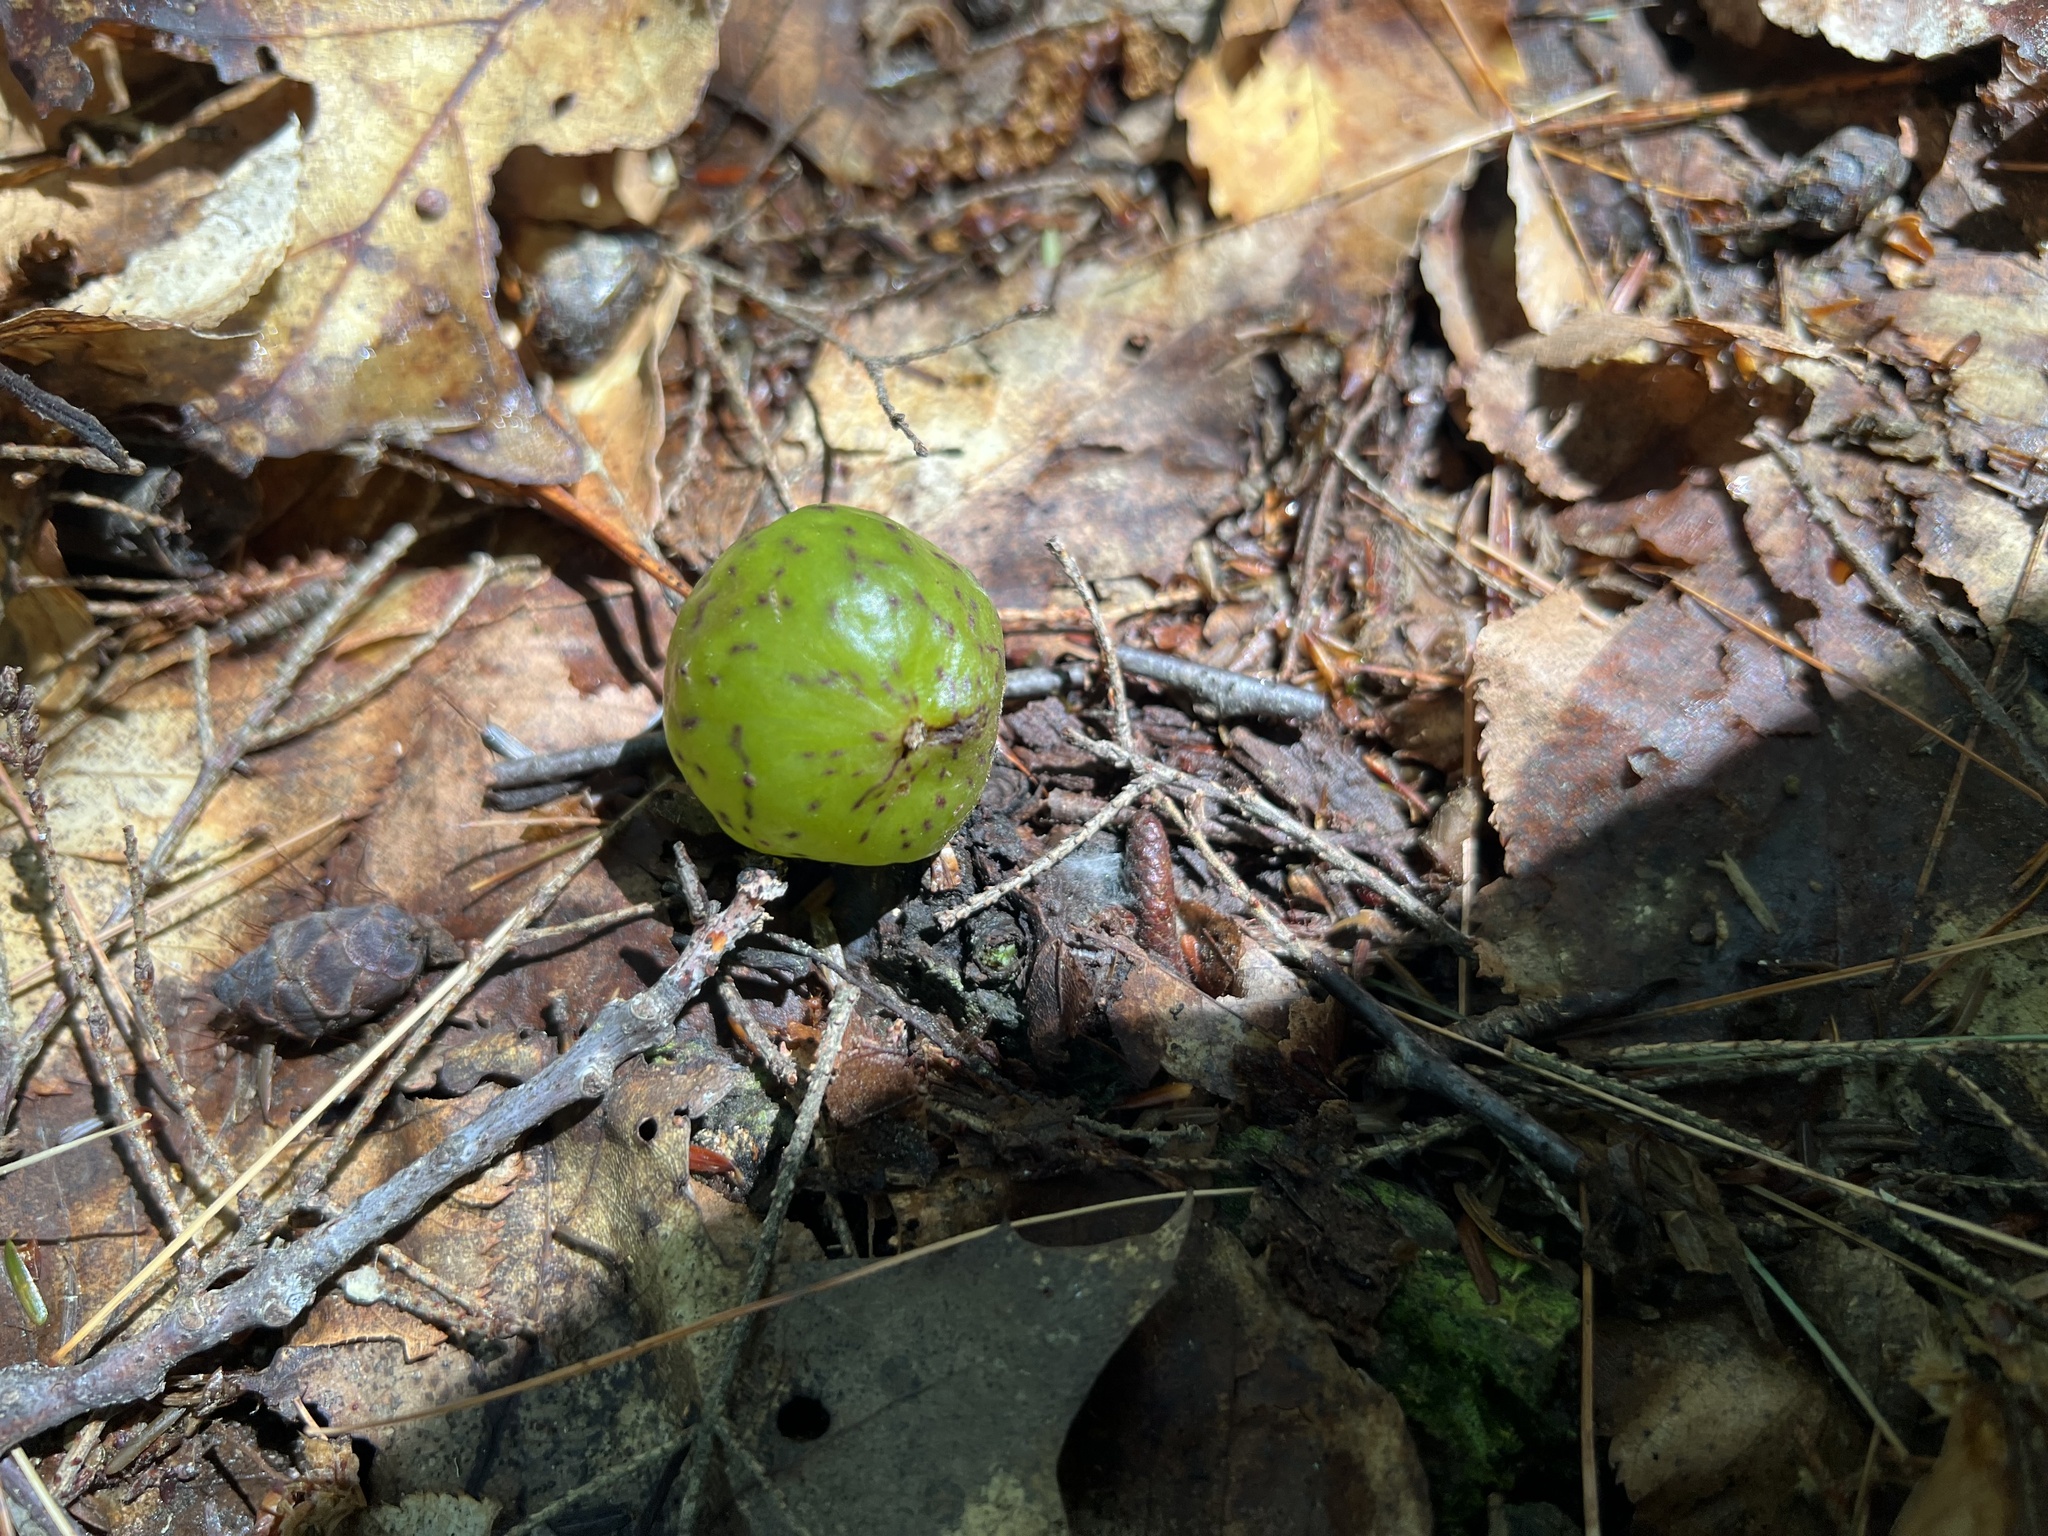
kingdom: Animalia
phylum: Arthropoda
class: Insecta
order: Hymenoptera
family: Cynipidae
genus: Amphibolips
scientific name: Amphibolips
